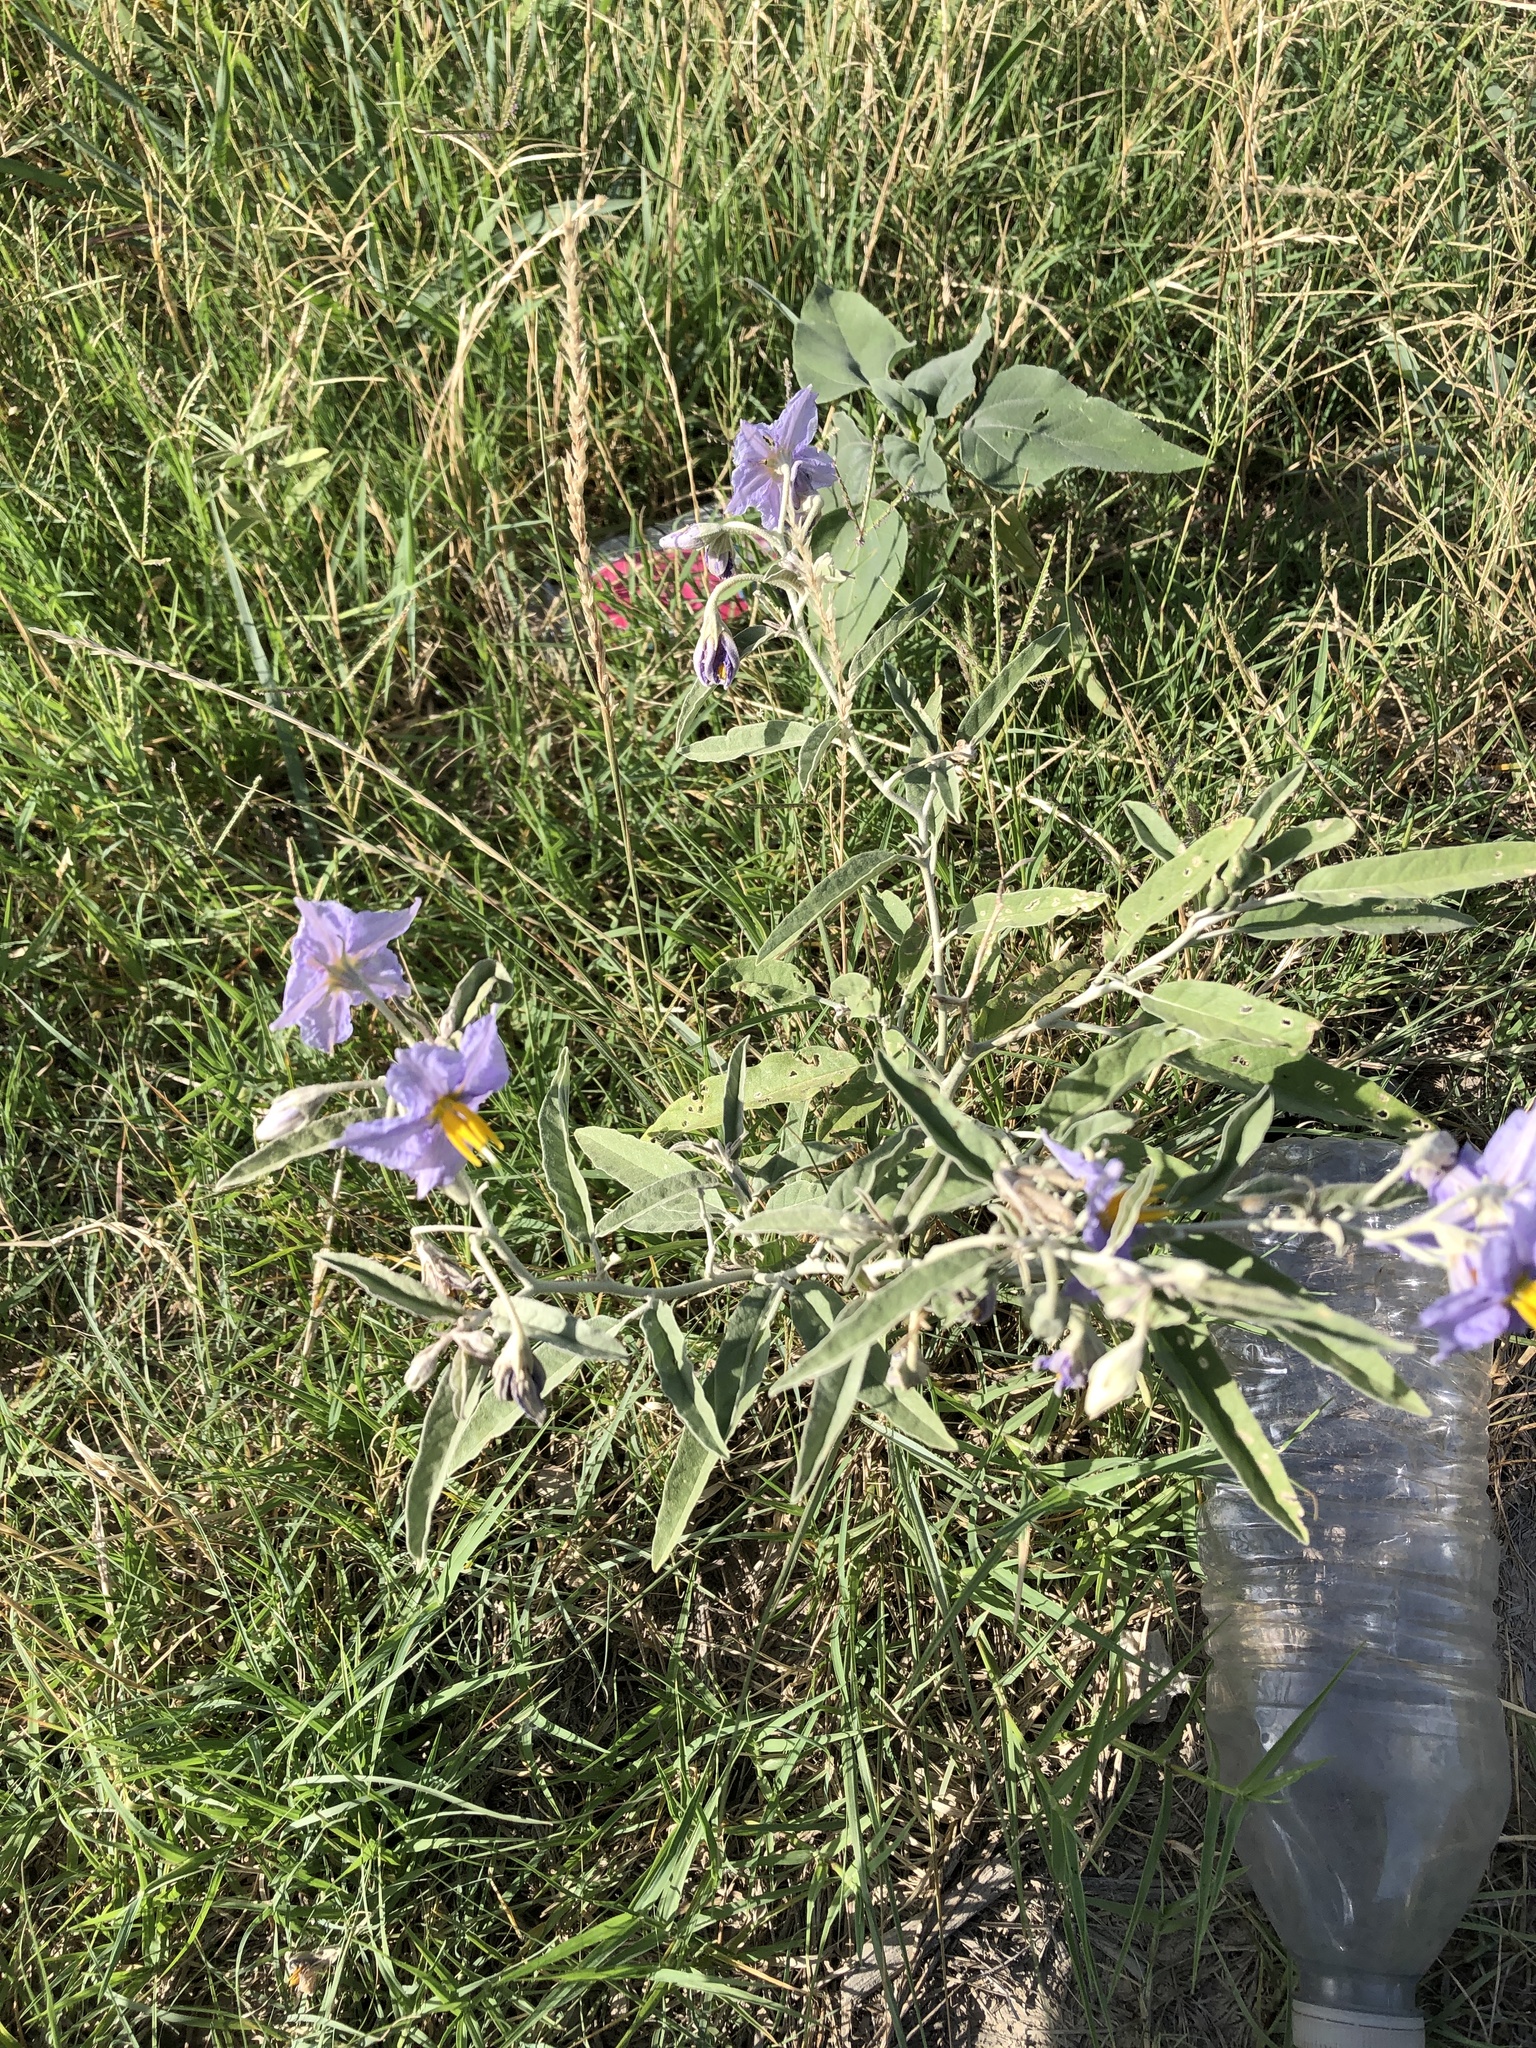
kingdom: Plantae
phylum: Tracheophyta
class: Magnoliopsida
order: Solanales
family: Solanaceae
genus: Solanum
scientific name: Solanum elaeagnifolium
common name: Silverleaf nightshade
